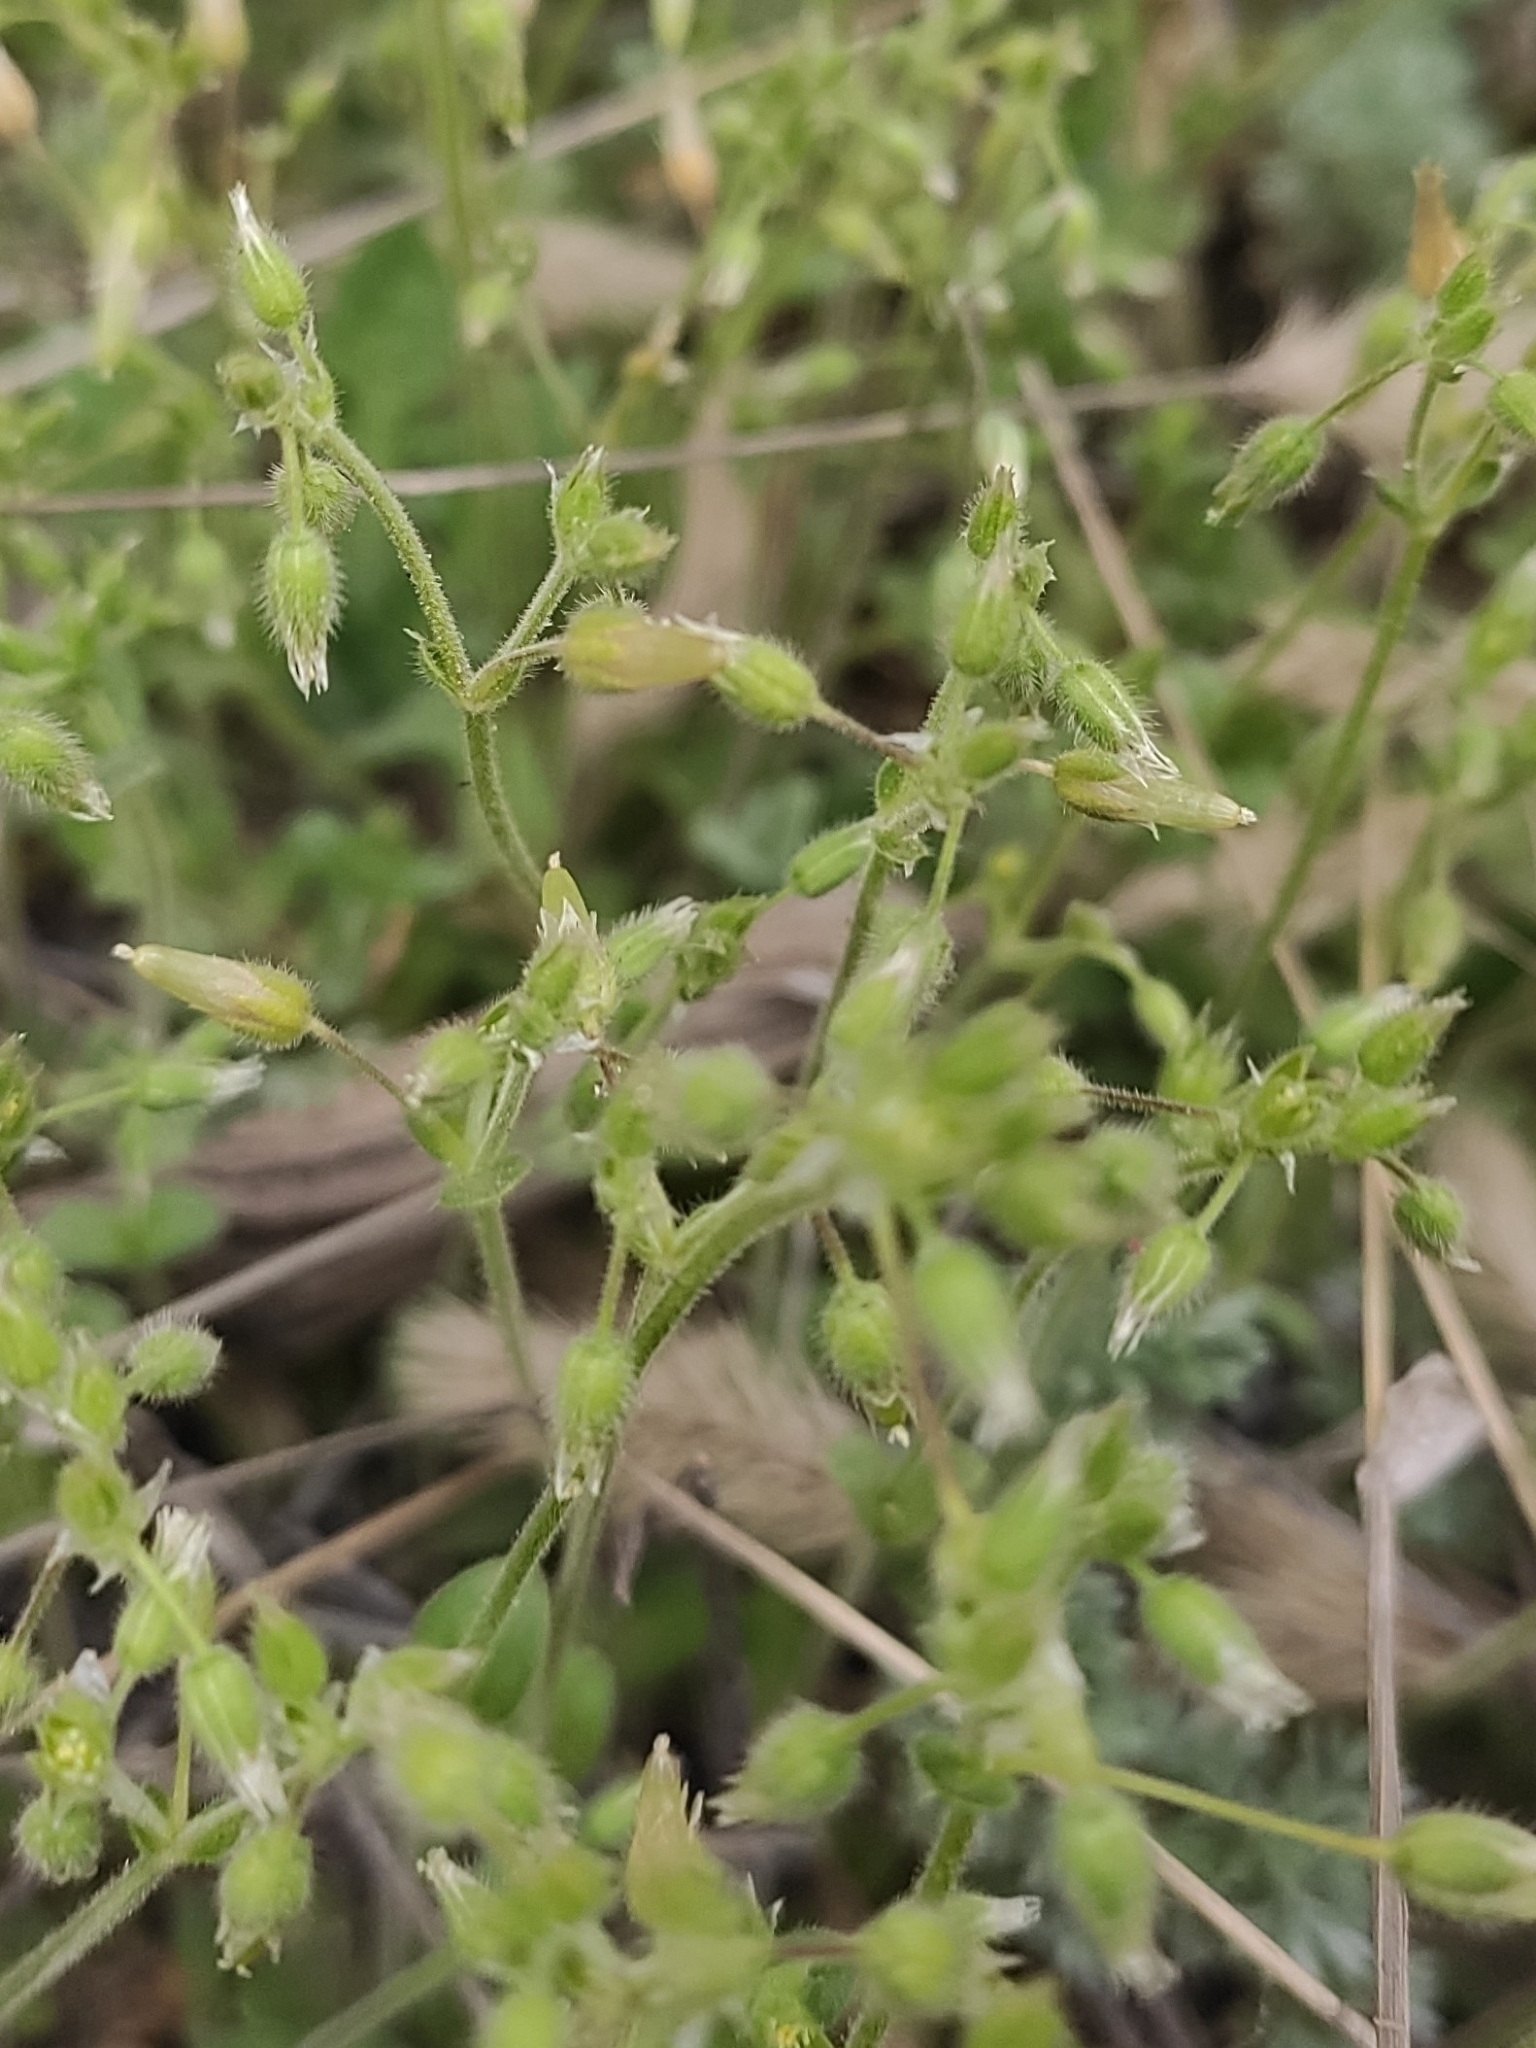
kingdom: Plantae
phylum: Tracheophyta
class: Magnoliopsida
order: Caryophyllales
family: Caryophyllaceae
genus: Cerastium
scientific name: Cerastium pumilum
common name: Dwarf mouse-ear
